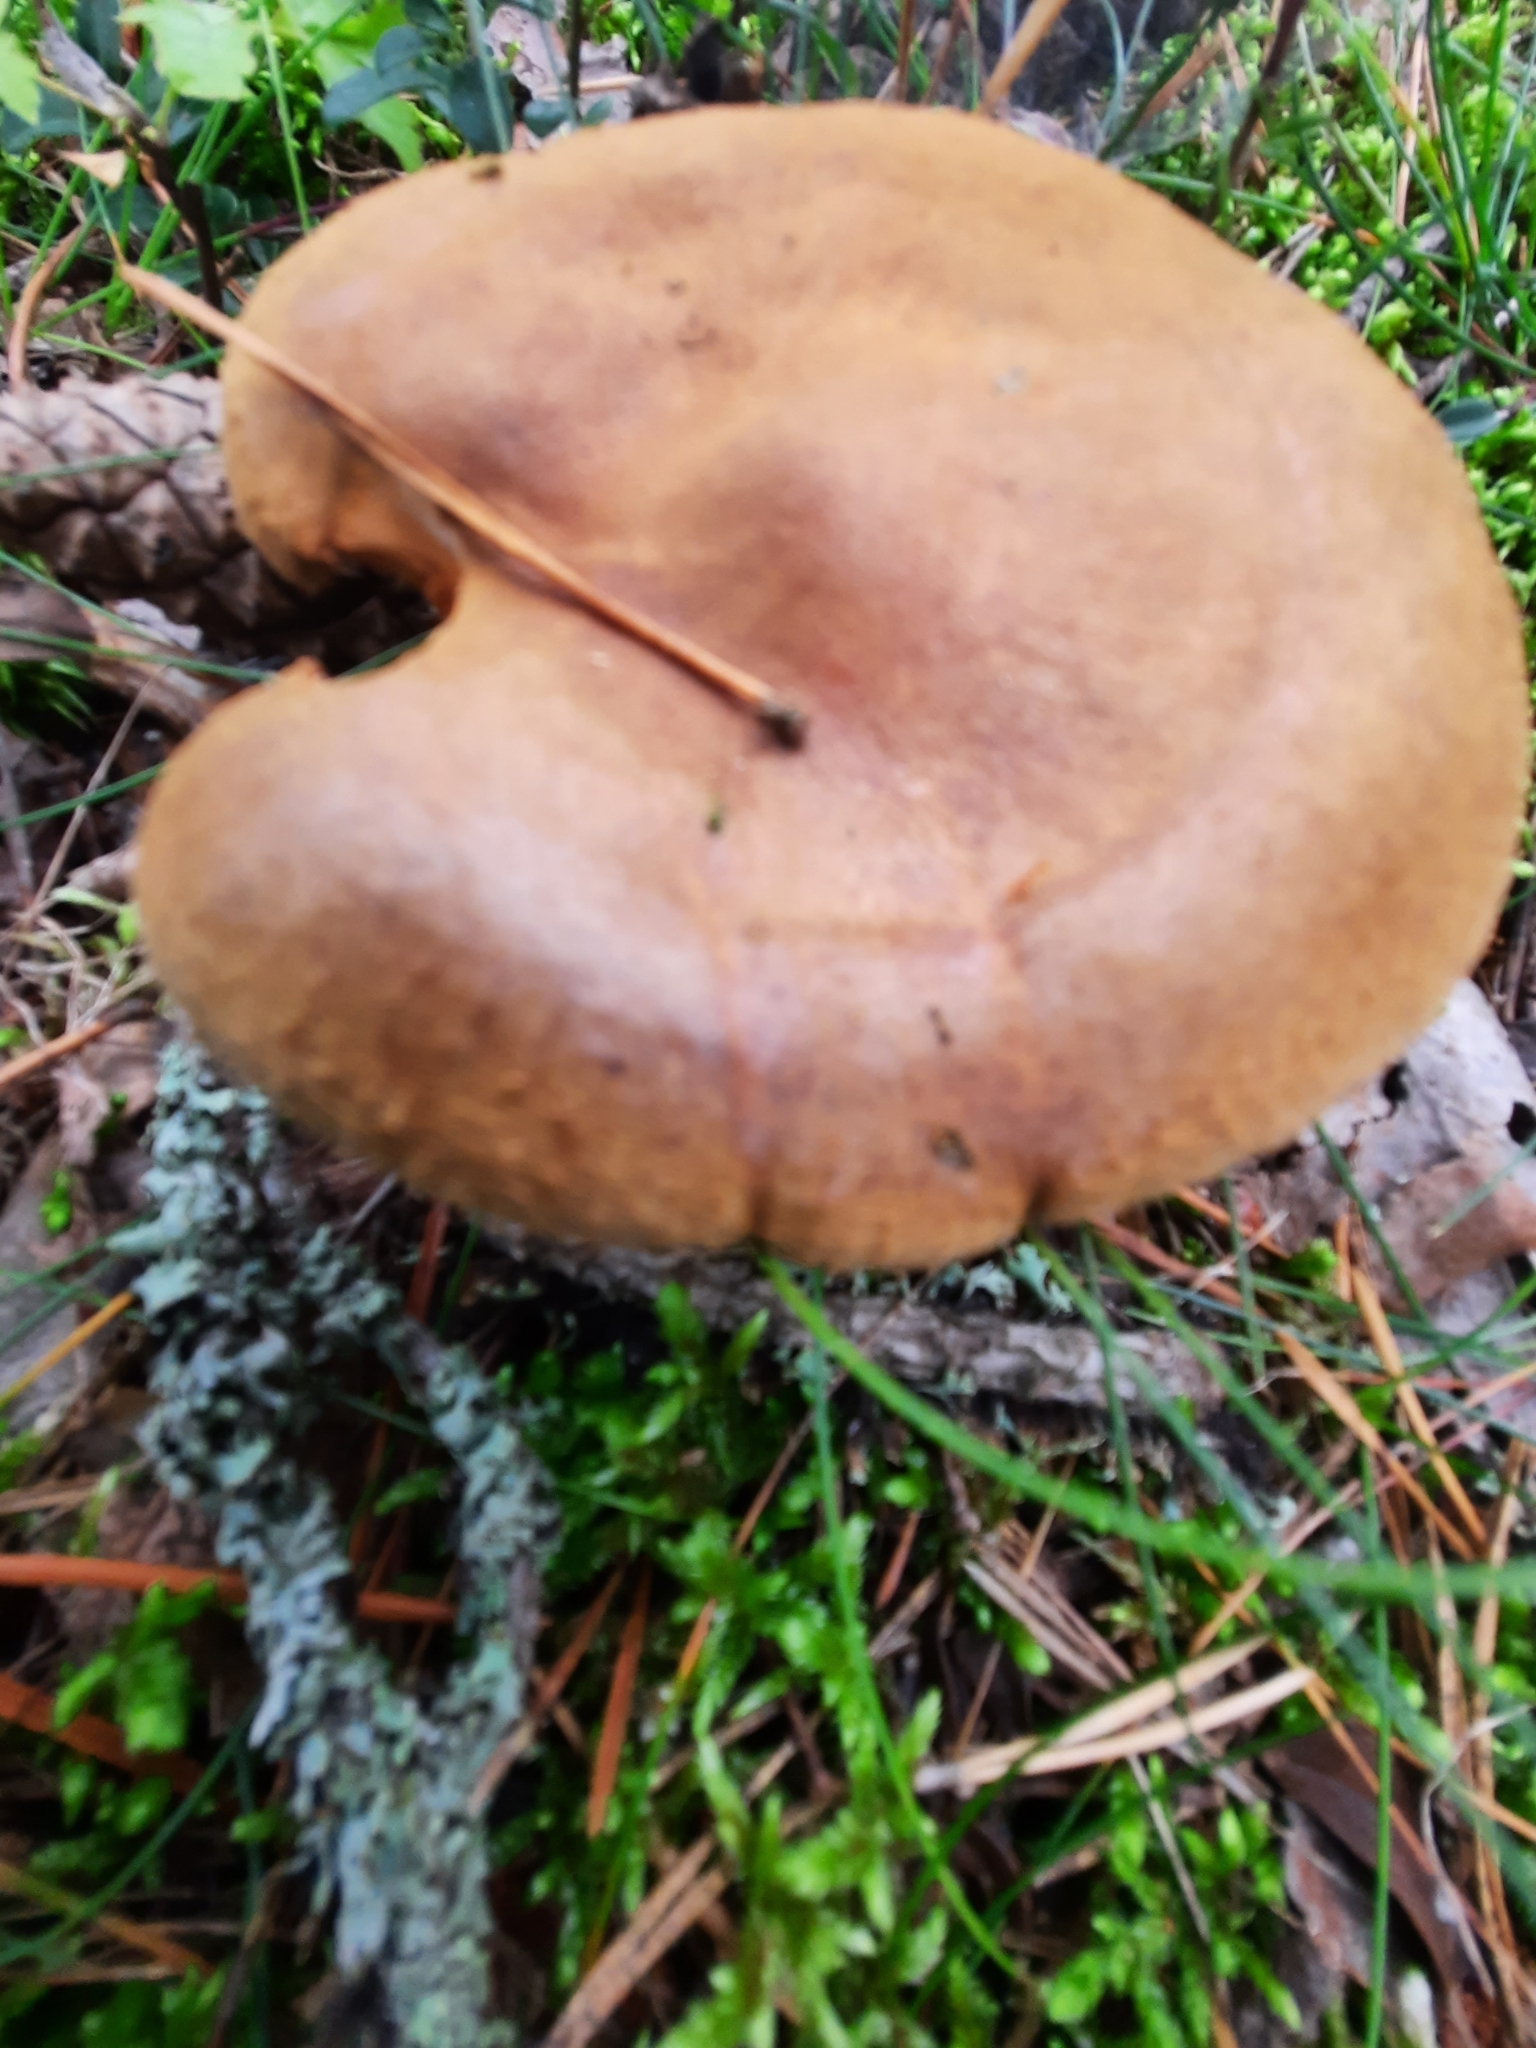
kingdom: Fungi
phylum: Basidiomycota
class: Agaricomycetes
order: Boletales
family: Paxillaceae
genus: Paxillus
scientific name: Paxillus involutus
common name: Brown roll rim
